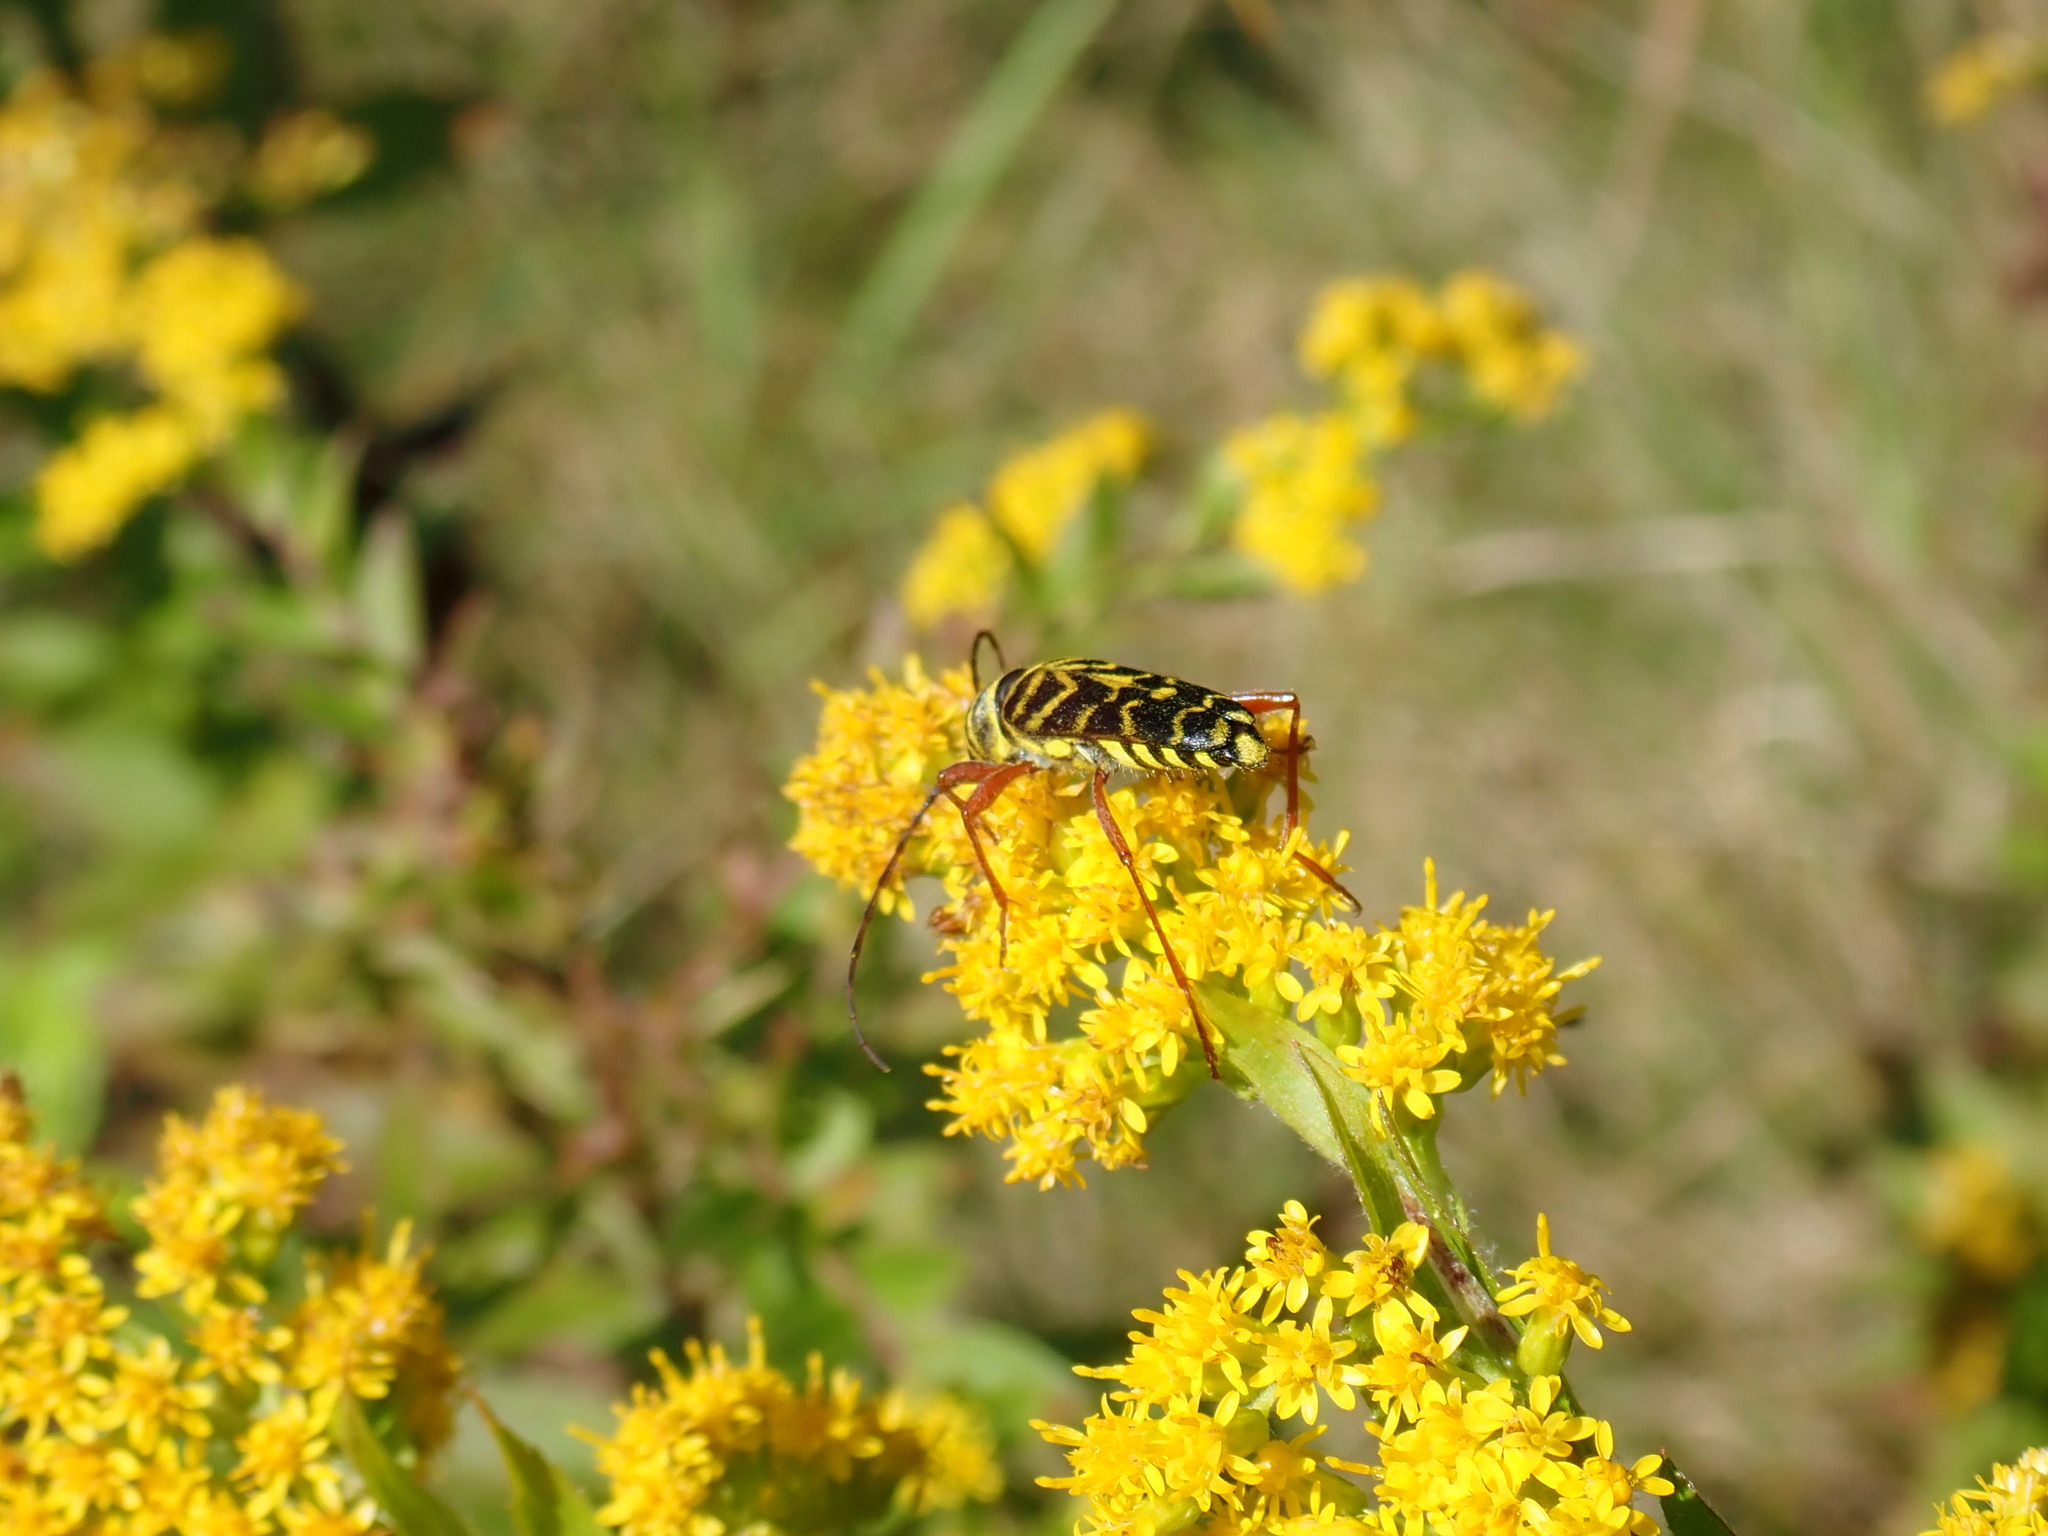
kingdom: Animalia
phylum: Arthropoda
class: Insecta
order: Coleoptera
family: Cerambycidae
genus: Megacyllene
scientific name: Megacyllene robiniae
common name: Locust borer
